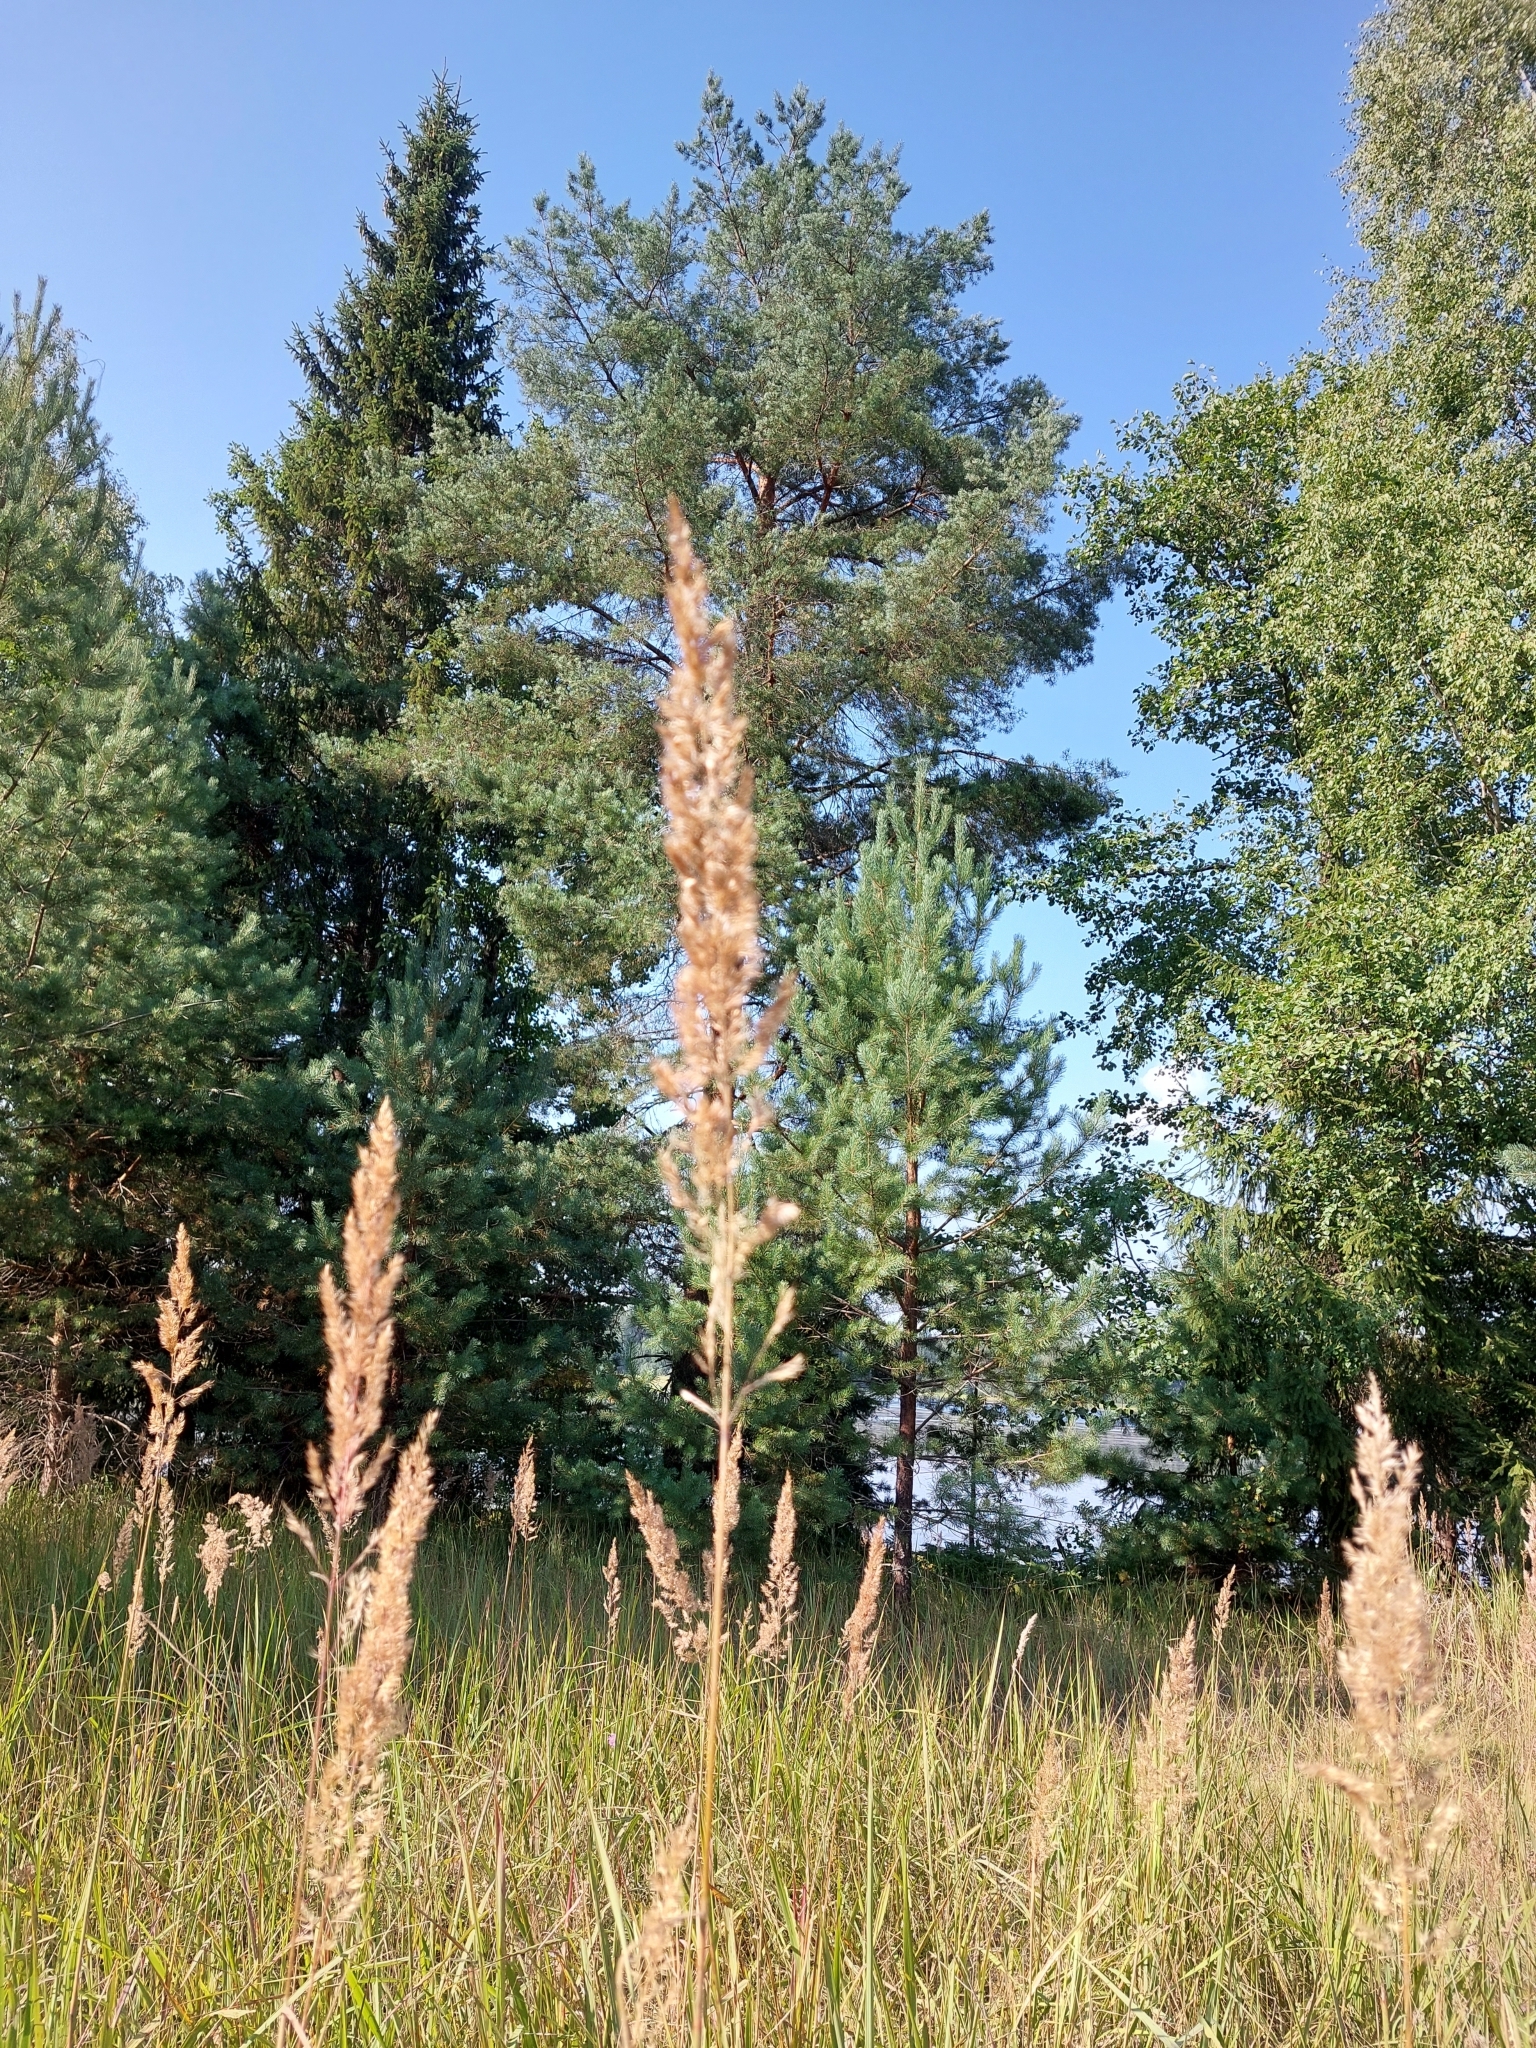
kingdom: Plantae
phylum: Tracheophyta
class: Liliopsida
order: Poales
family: Poaceae
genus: Calamagrostis
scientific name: Calamagrostis epigejos
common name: Wood small-reed
